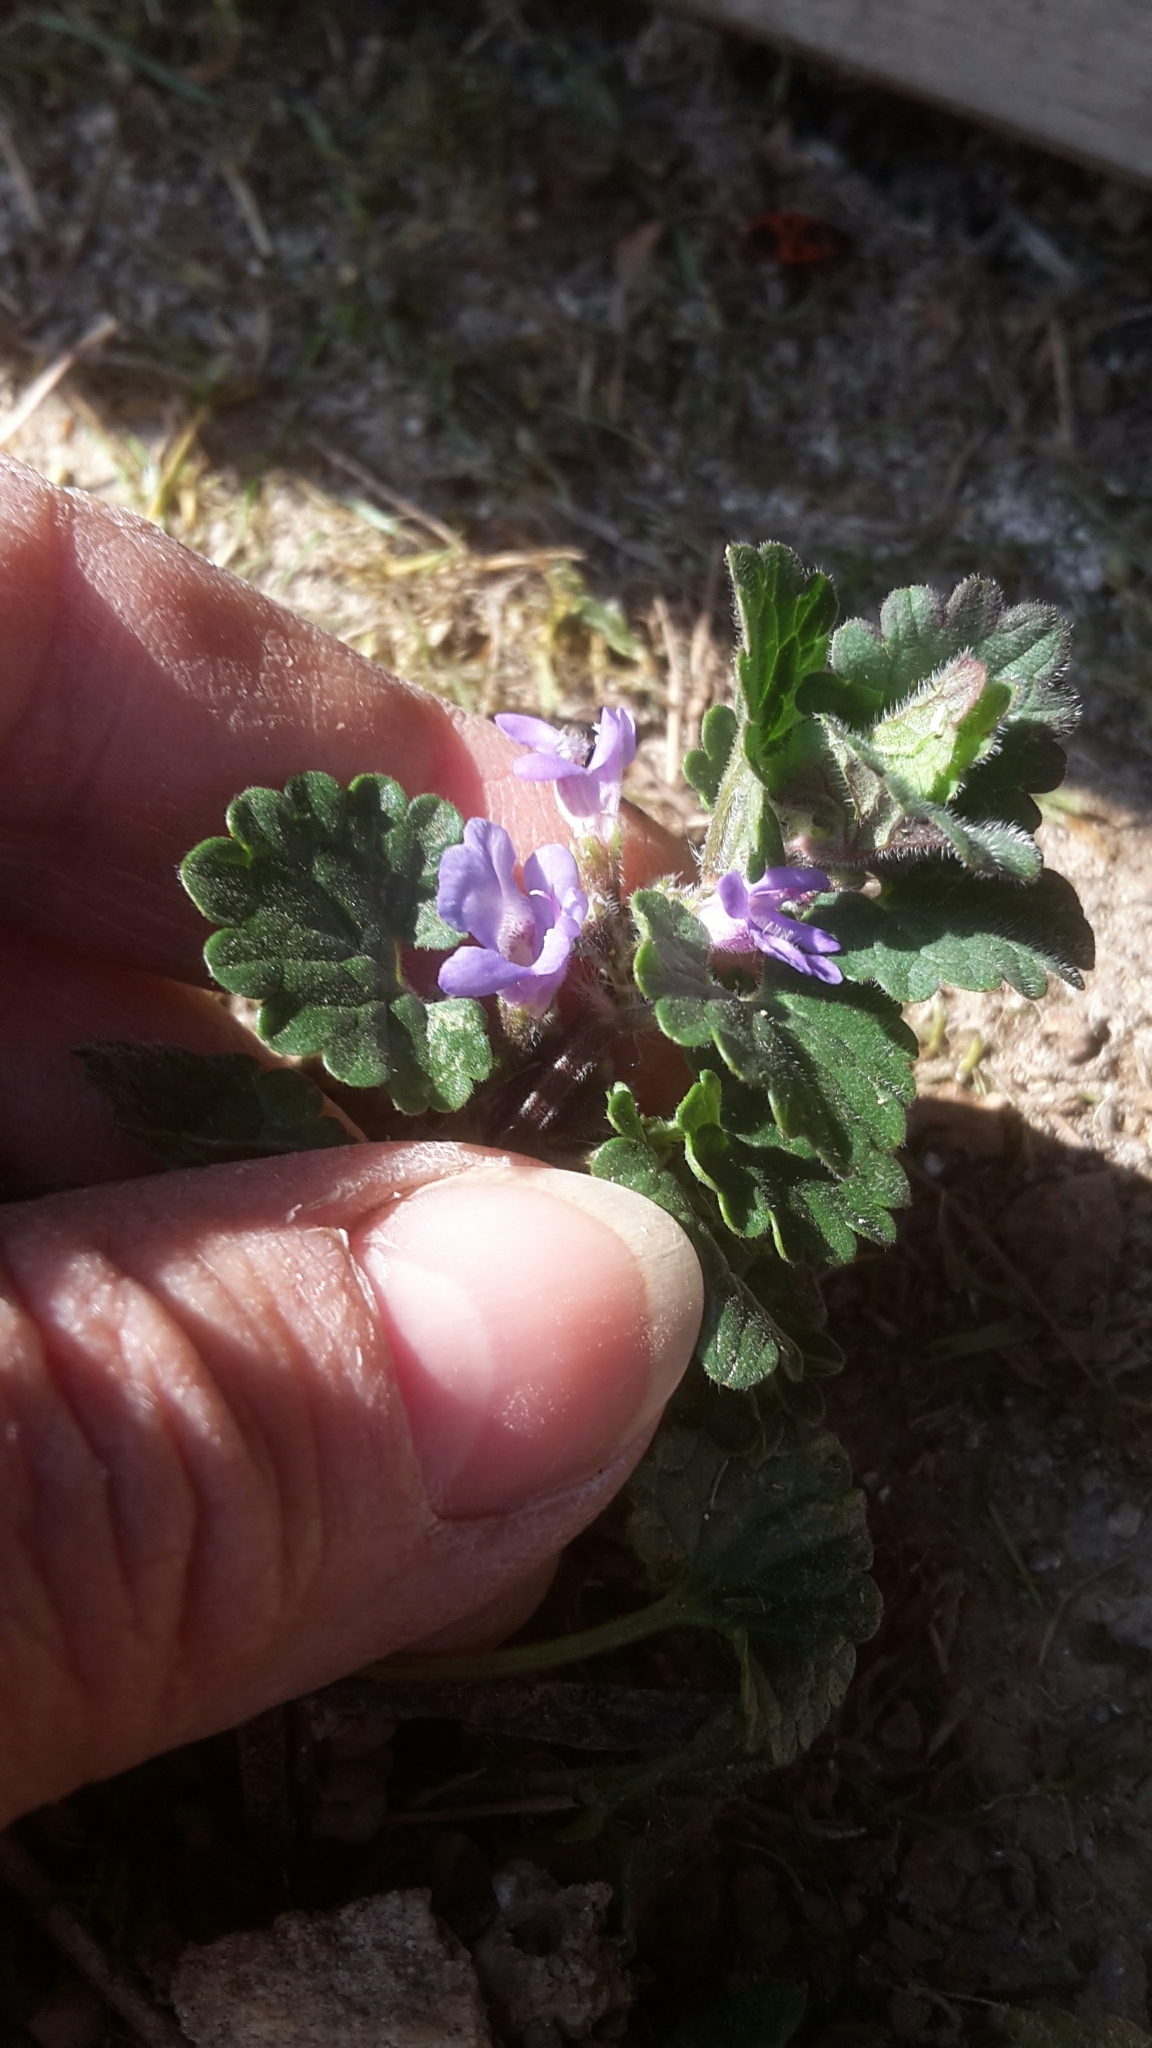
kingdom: Plantae
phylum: Tracheophyta
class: Magnoliopsida
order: Lamiales
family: Lamiaceae
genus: Glechoma
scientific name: Glechoma hederacea
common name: Ground ivy
